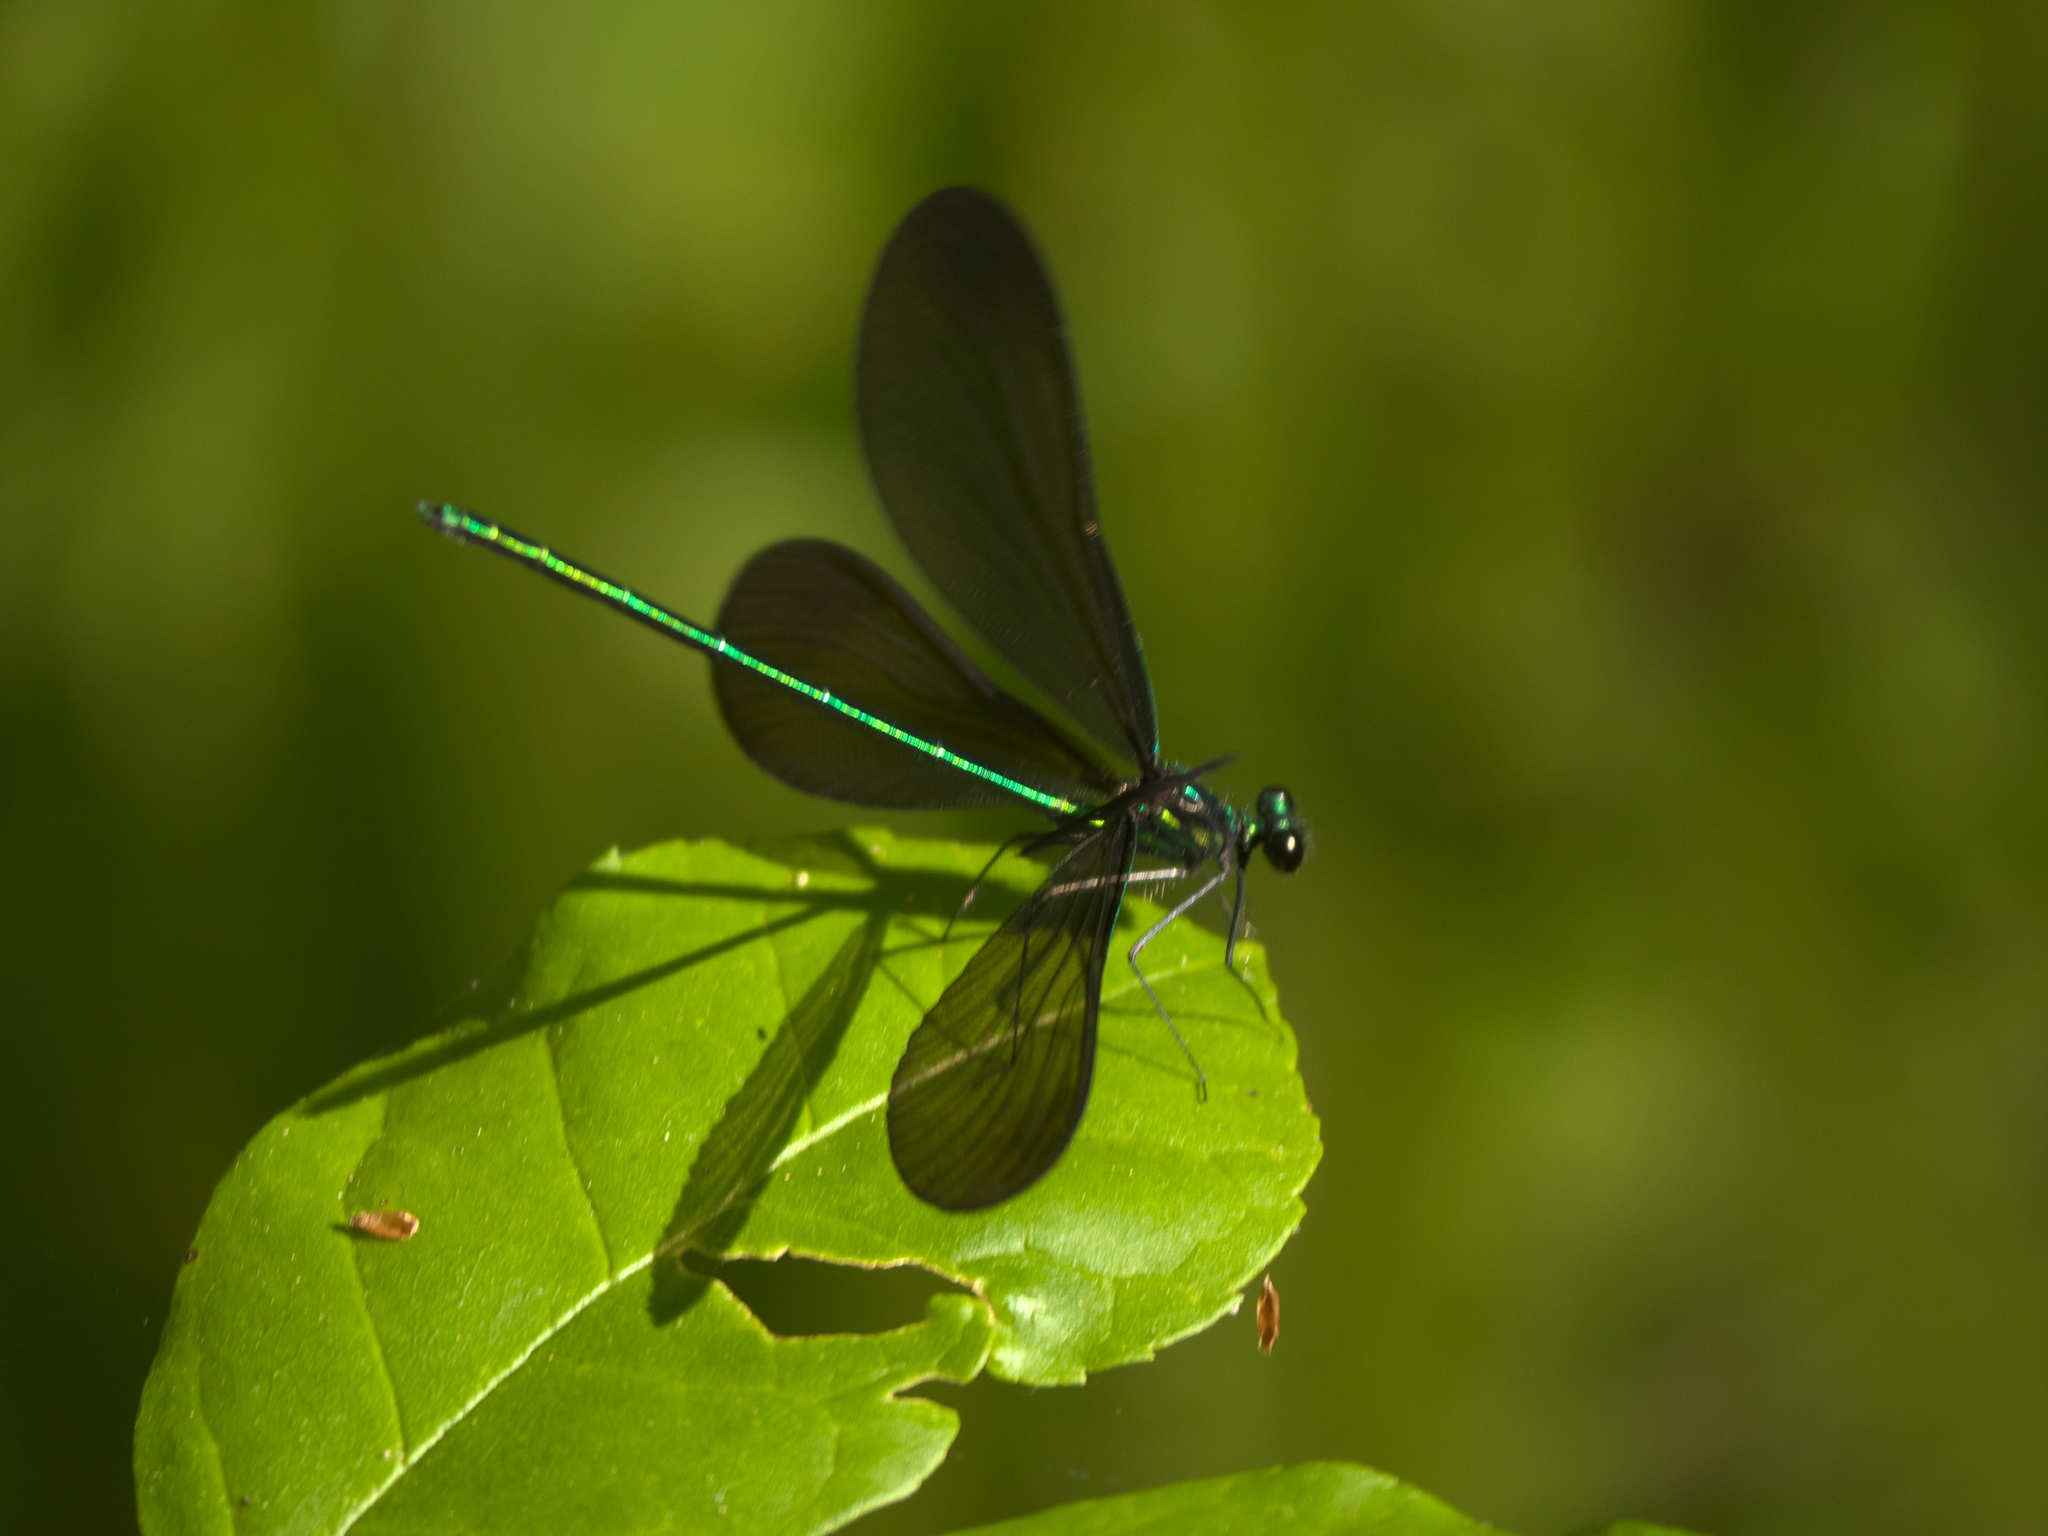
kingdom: Animalia
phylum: Arthropoda
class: Insecta
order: Odonata
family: Calopterygidae
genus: Calopteryx
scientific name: Calopteryx maculata
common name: Ebony jewelwing
